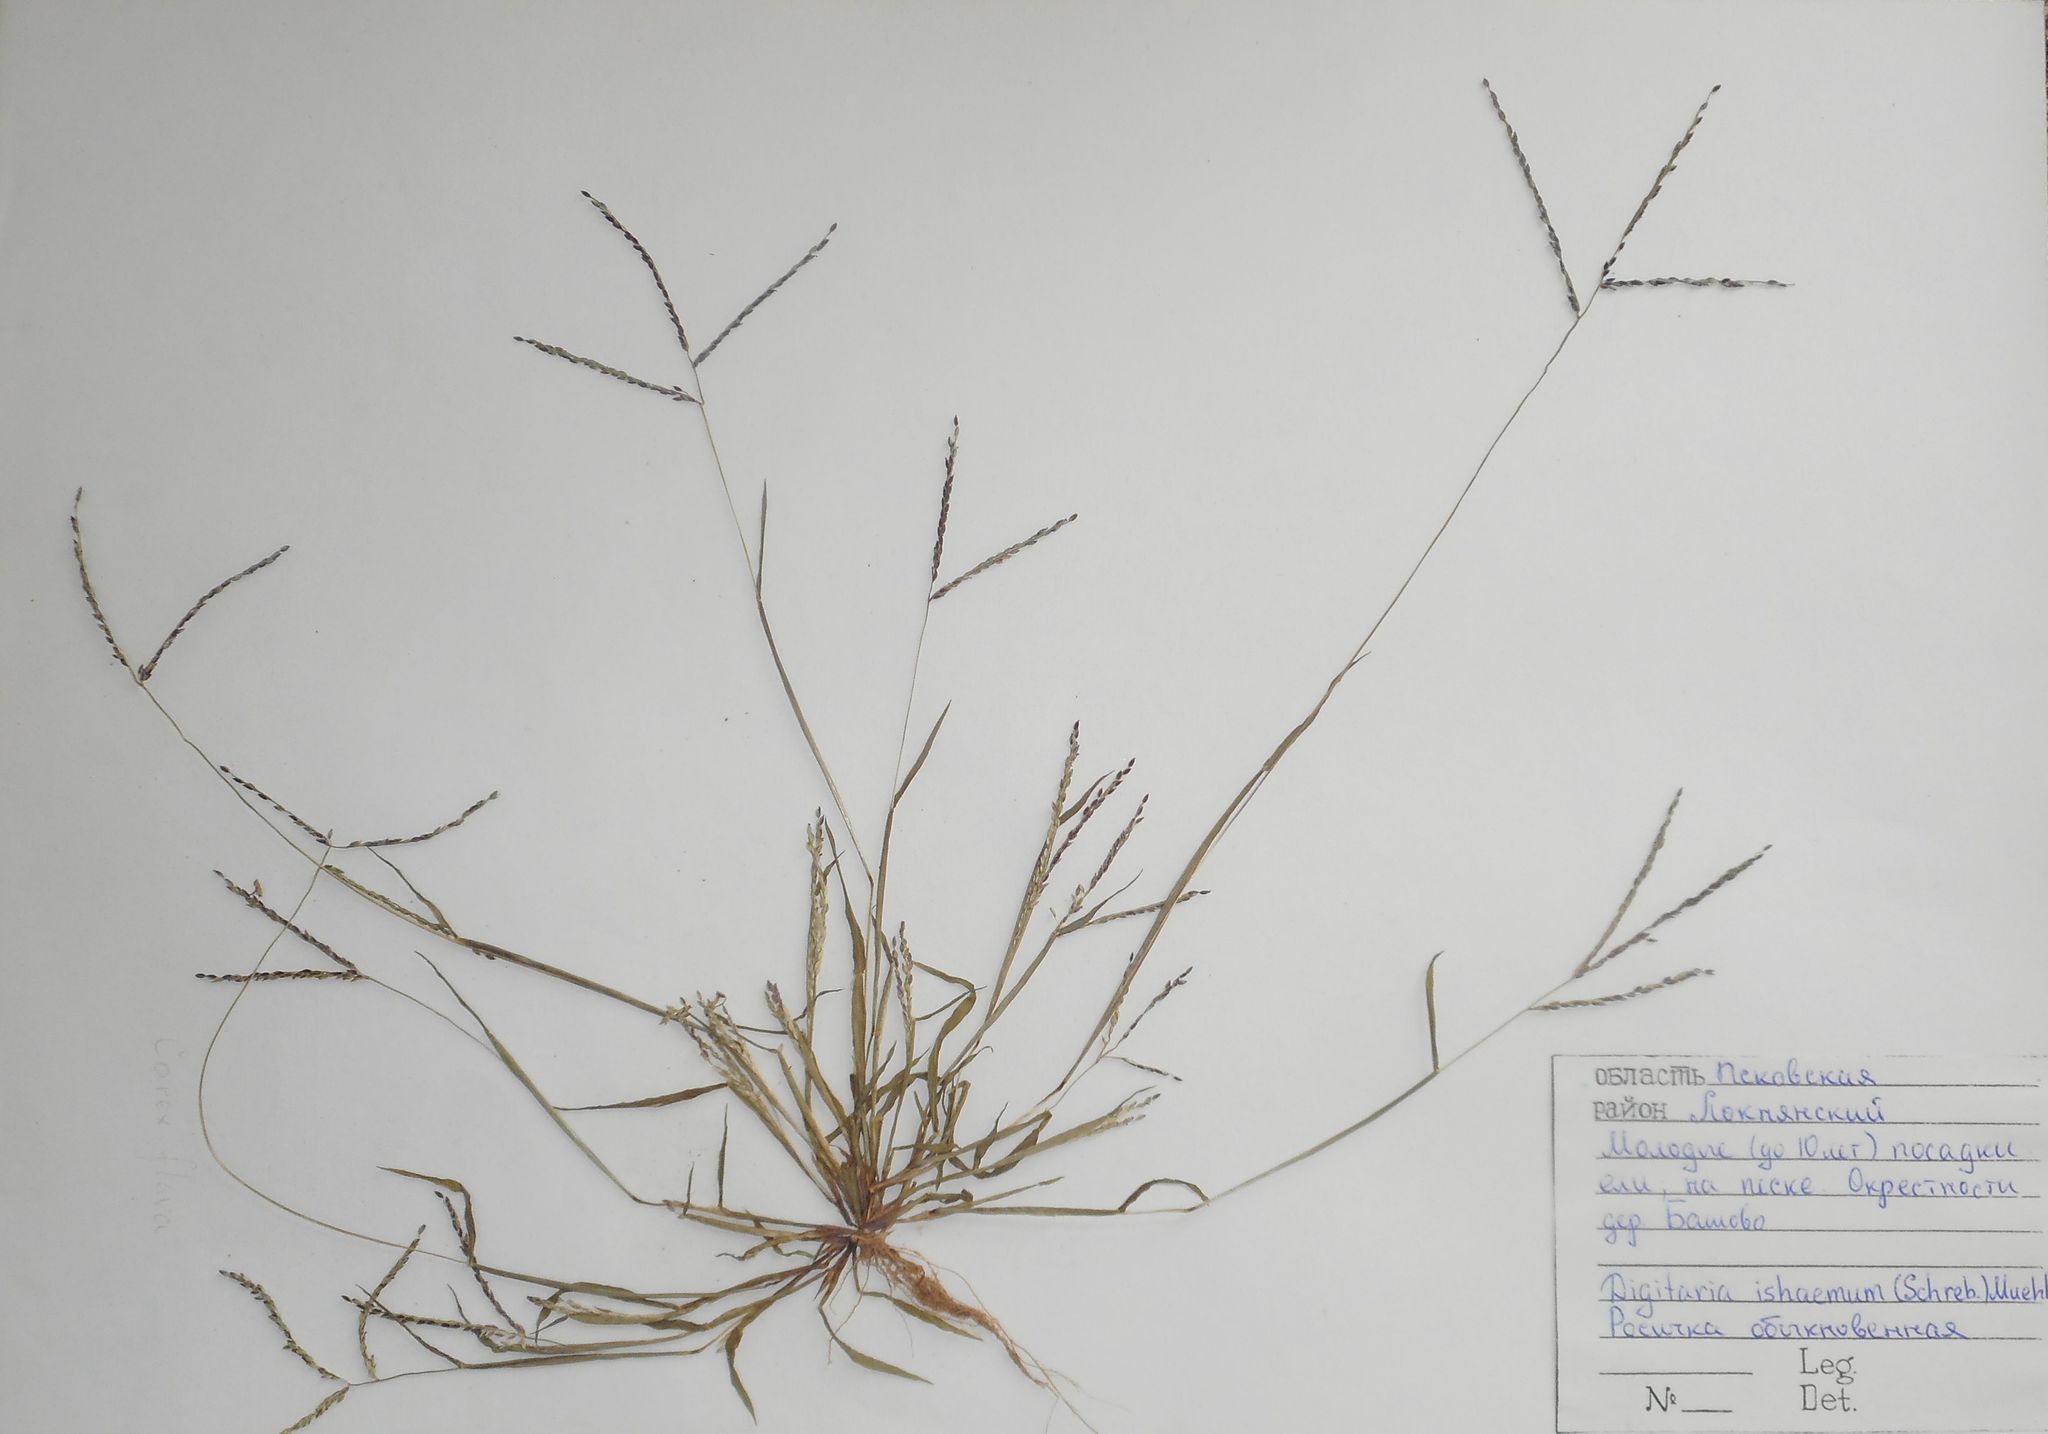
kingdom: Plantae
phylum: Tracheophyta
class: Liliopsida
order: Poales
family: Poaceae
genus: Digitaria
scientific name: Digitaria ischaemum
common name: Smooth crabgrass
